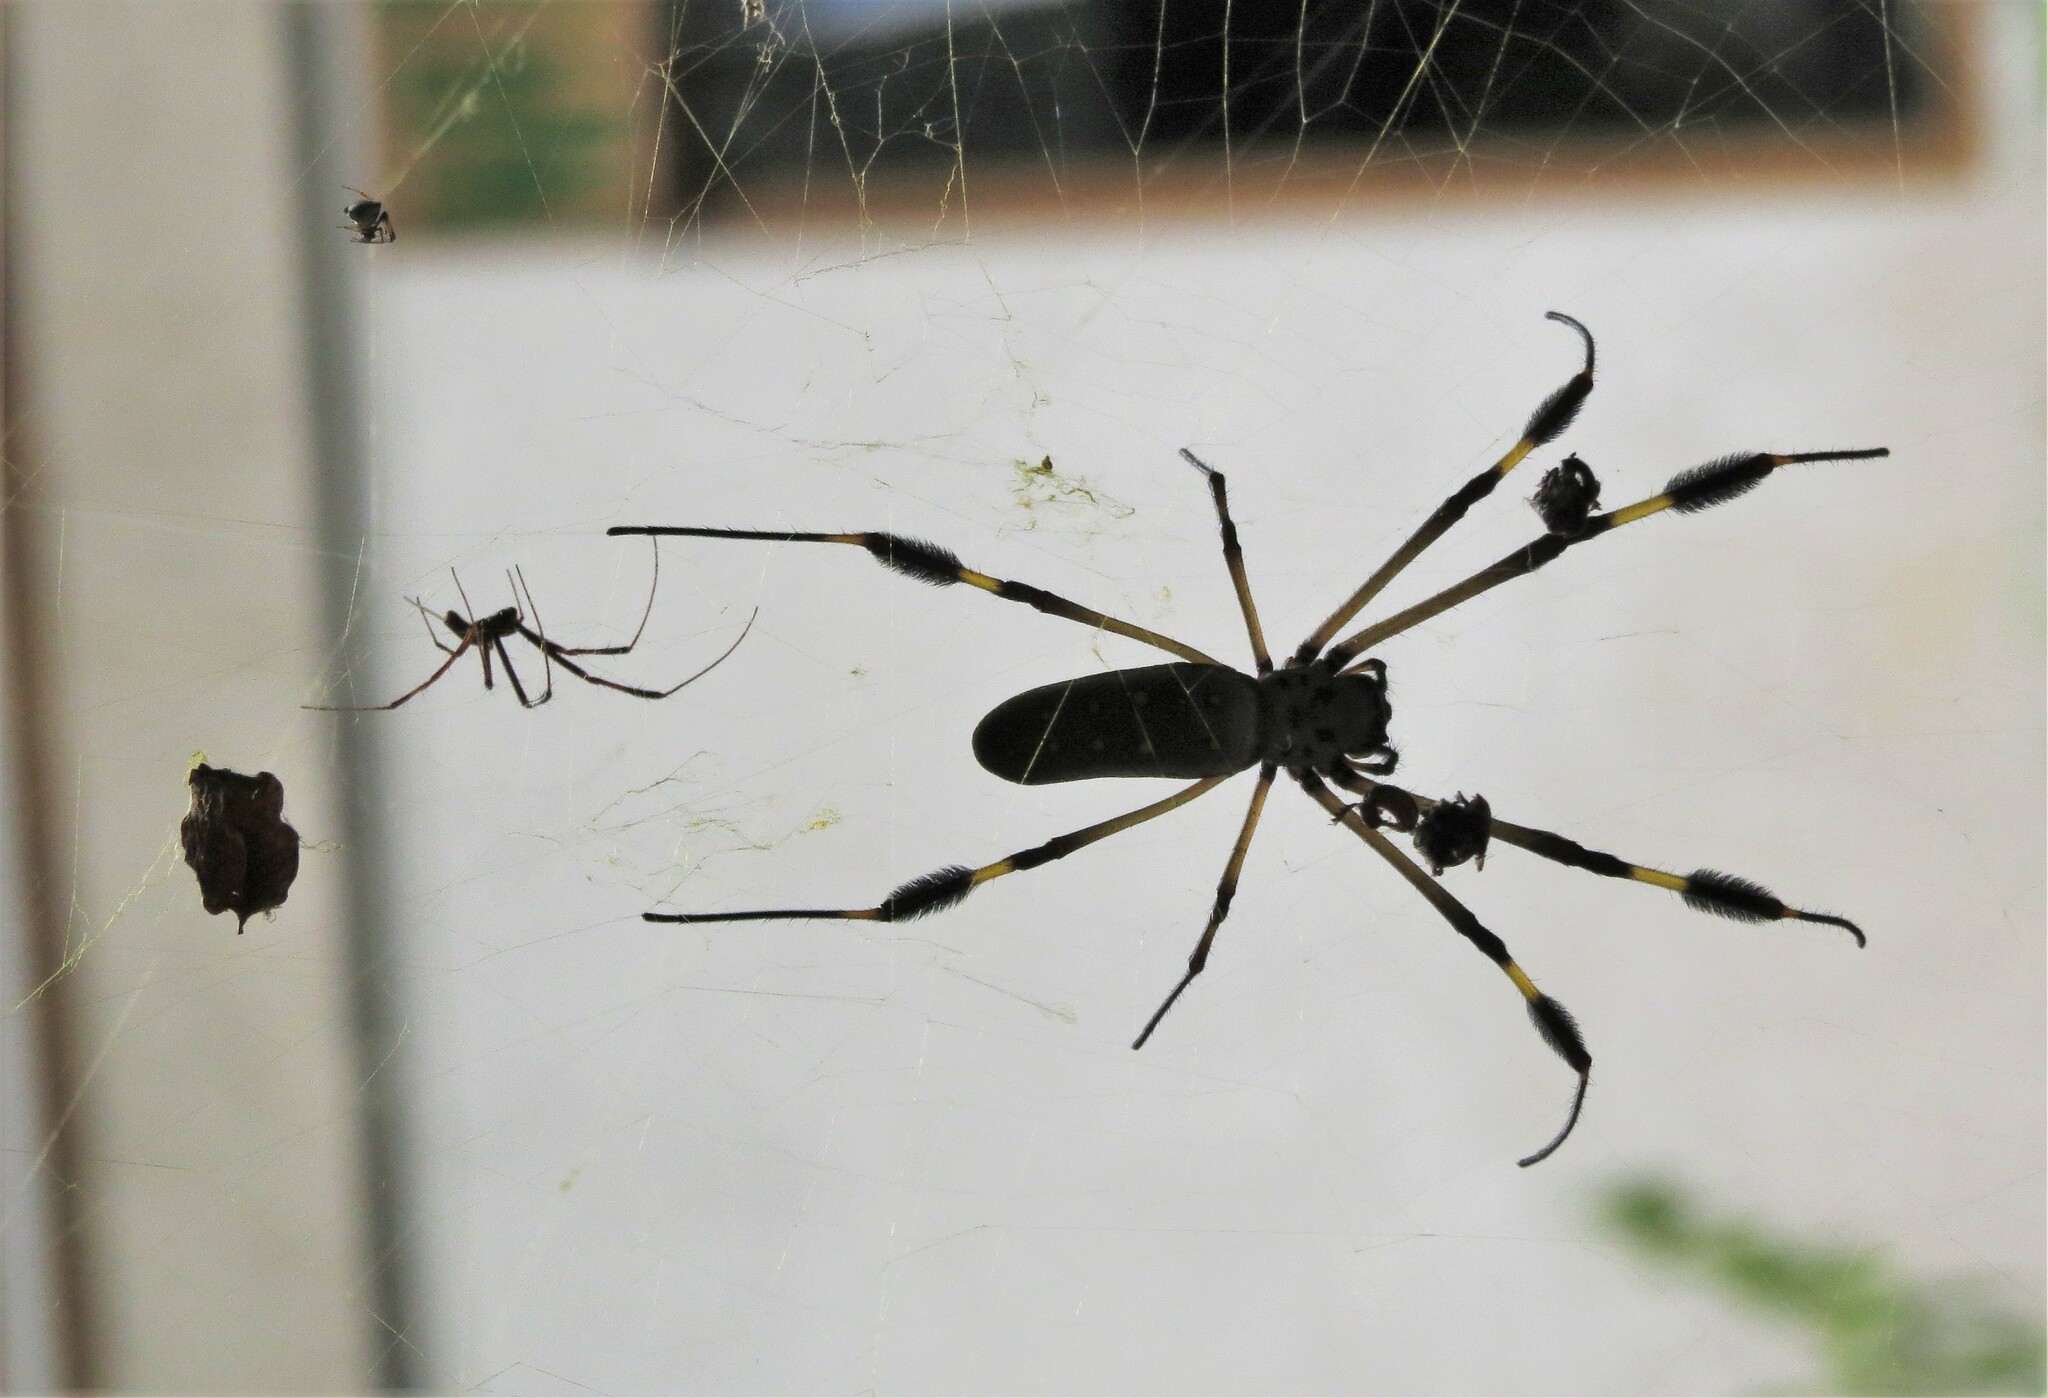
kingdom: Animalia
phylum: Arthropoda
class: Arachnida
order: Araneae
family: Araneidae
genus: Trichonephila
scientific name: Trichonephila clavipes
